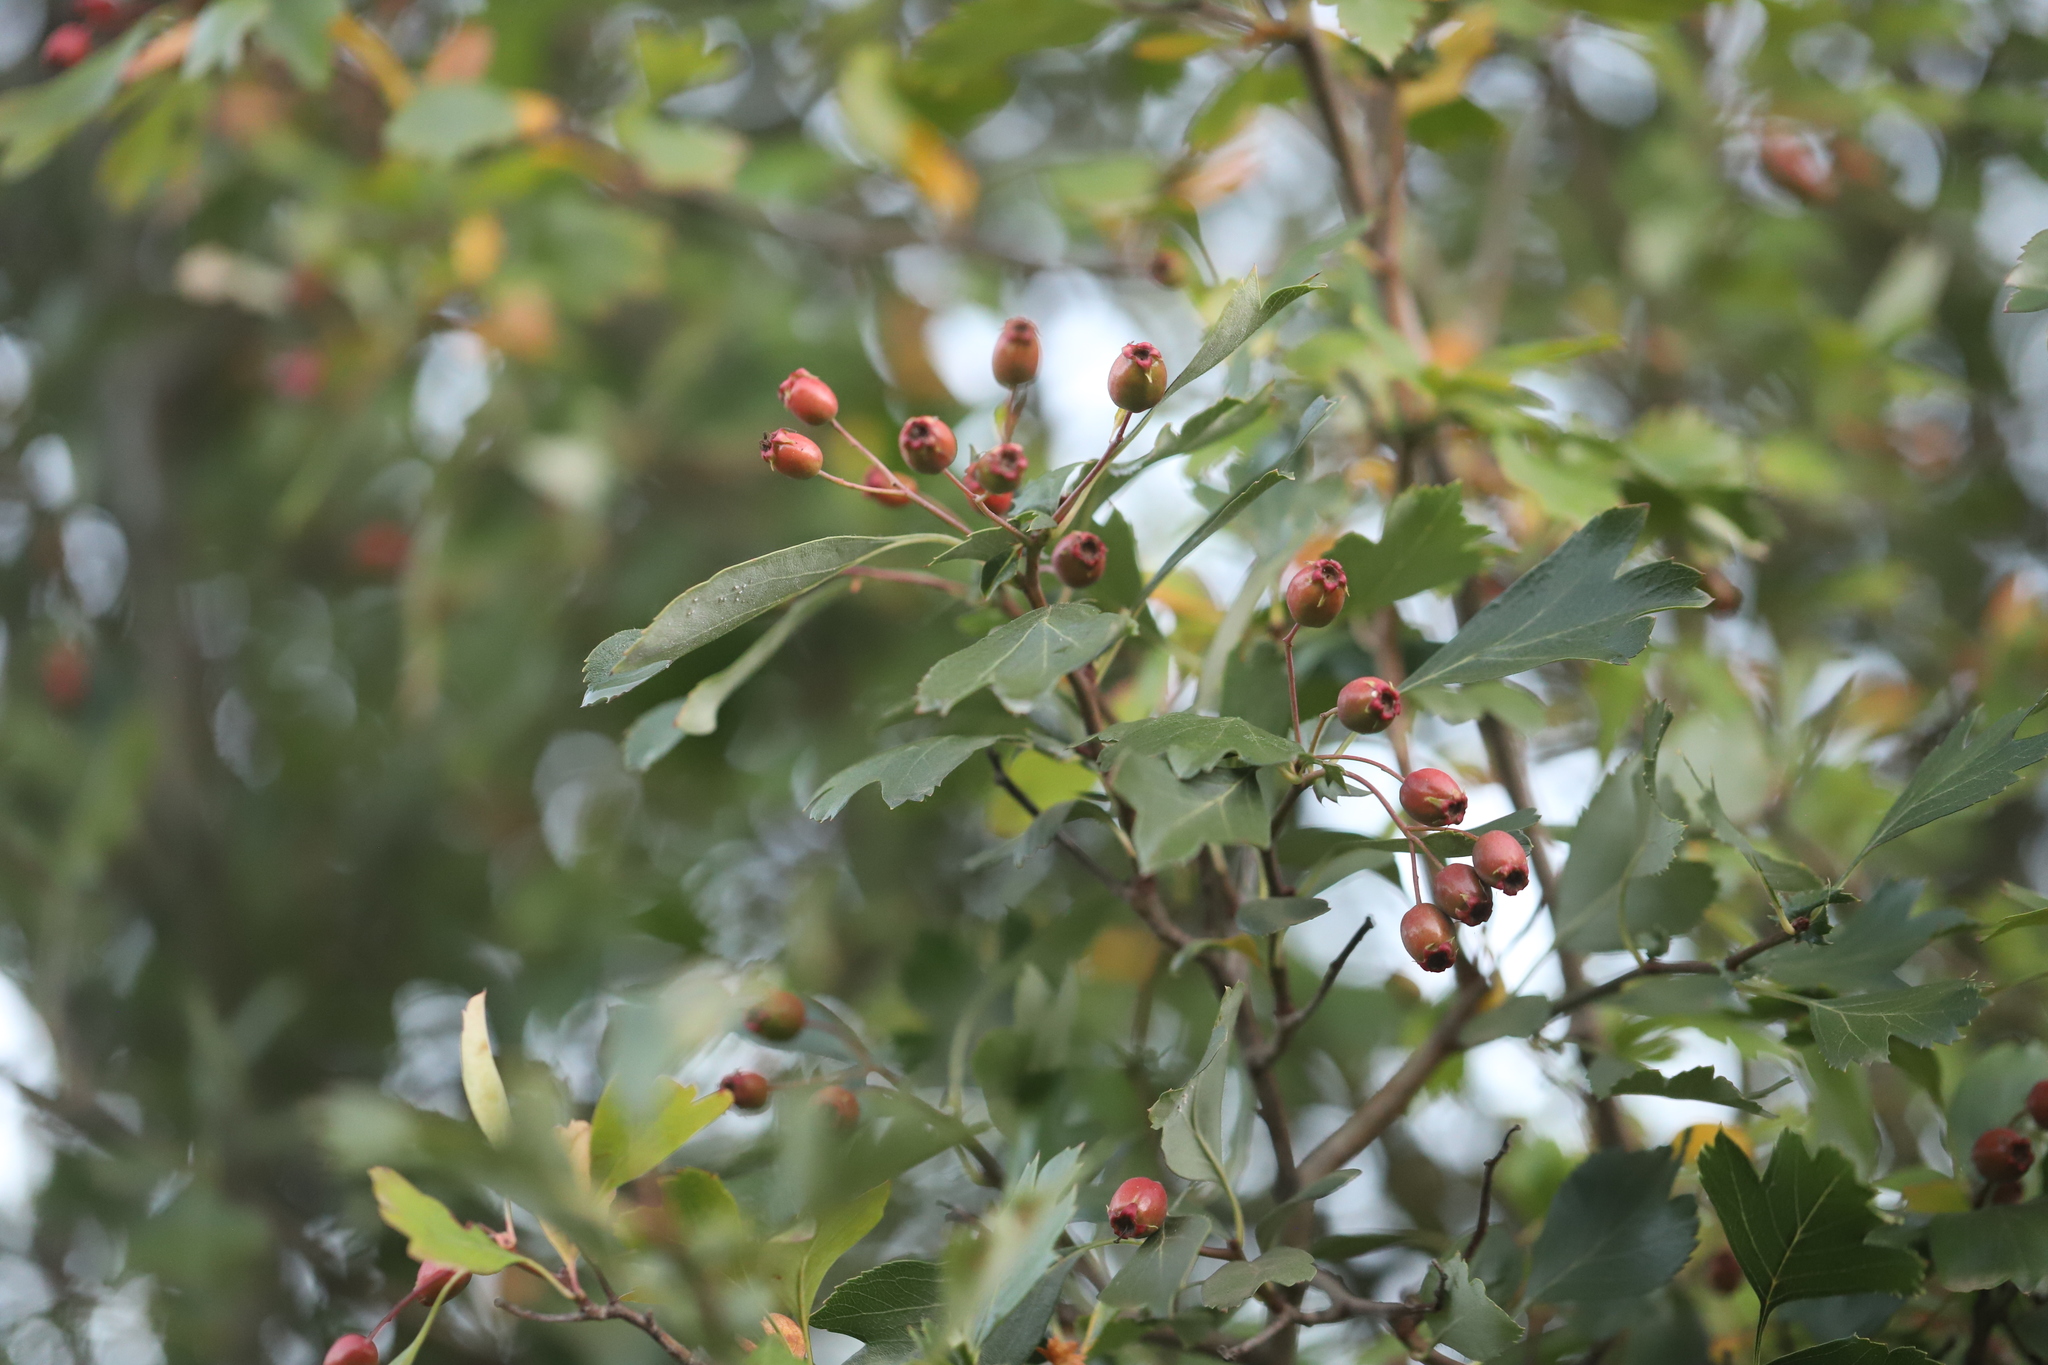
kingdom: Plantae
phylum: Tracheophyta
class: Magnoliopsida
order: Rosales
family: Rosaceae
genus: Crataegus
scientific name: Crataegus monogyna
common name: Hawthorn
